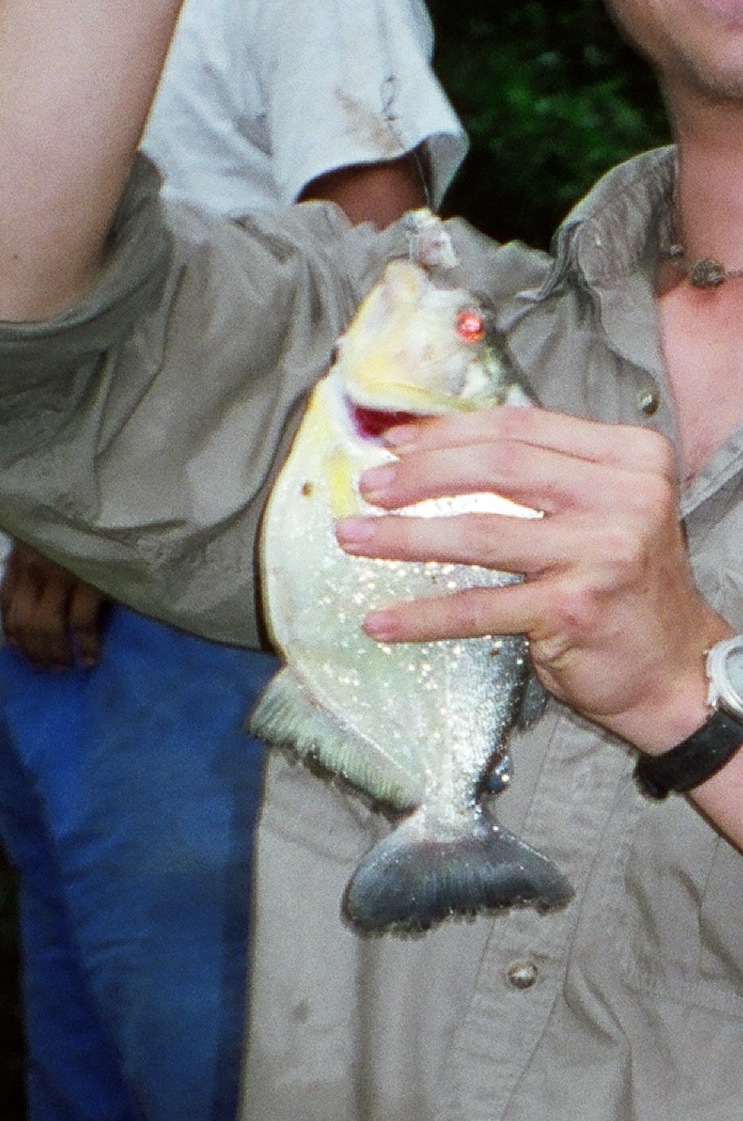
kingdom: Animalia
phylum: Chordata
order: Characiformes
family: Serrasalmidae
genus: Serrasalmus
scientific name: Serrasalmus rhombeus
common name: Redeye piranha
